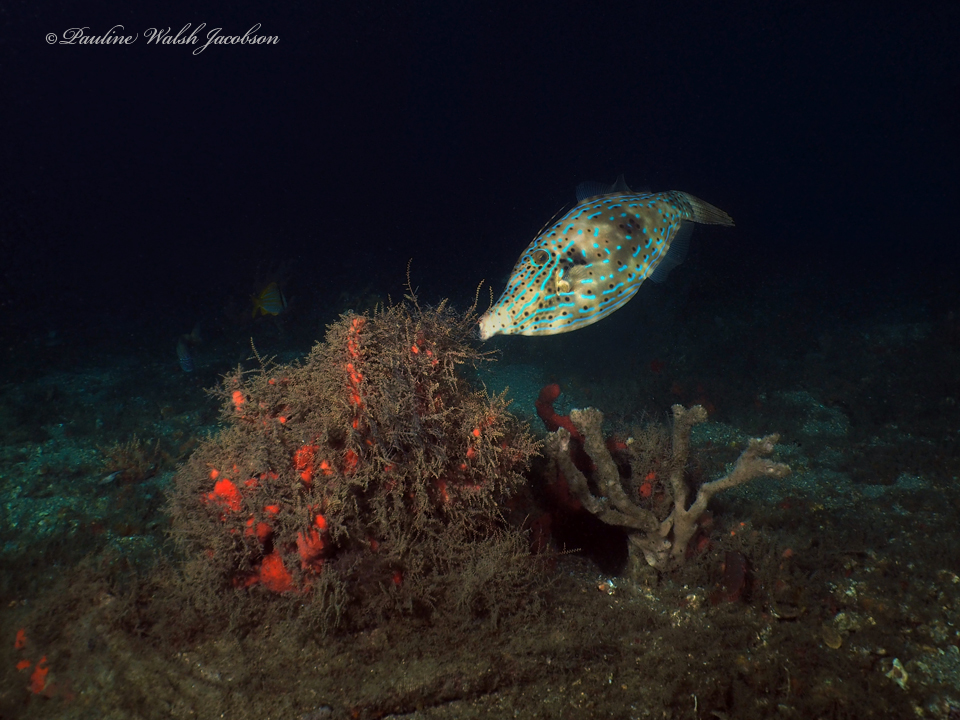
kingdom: Animalia
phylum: Chordata
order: Tetraodontiformes
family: Monacanthidae
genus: Aluterus
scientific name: Aluterus scriptus
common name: Scribbled leatherjacket filefish
